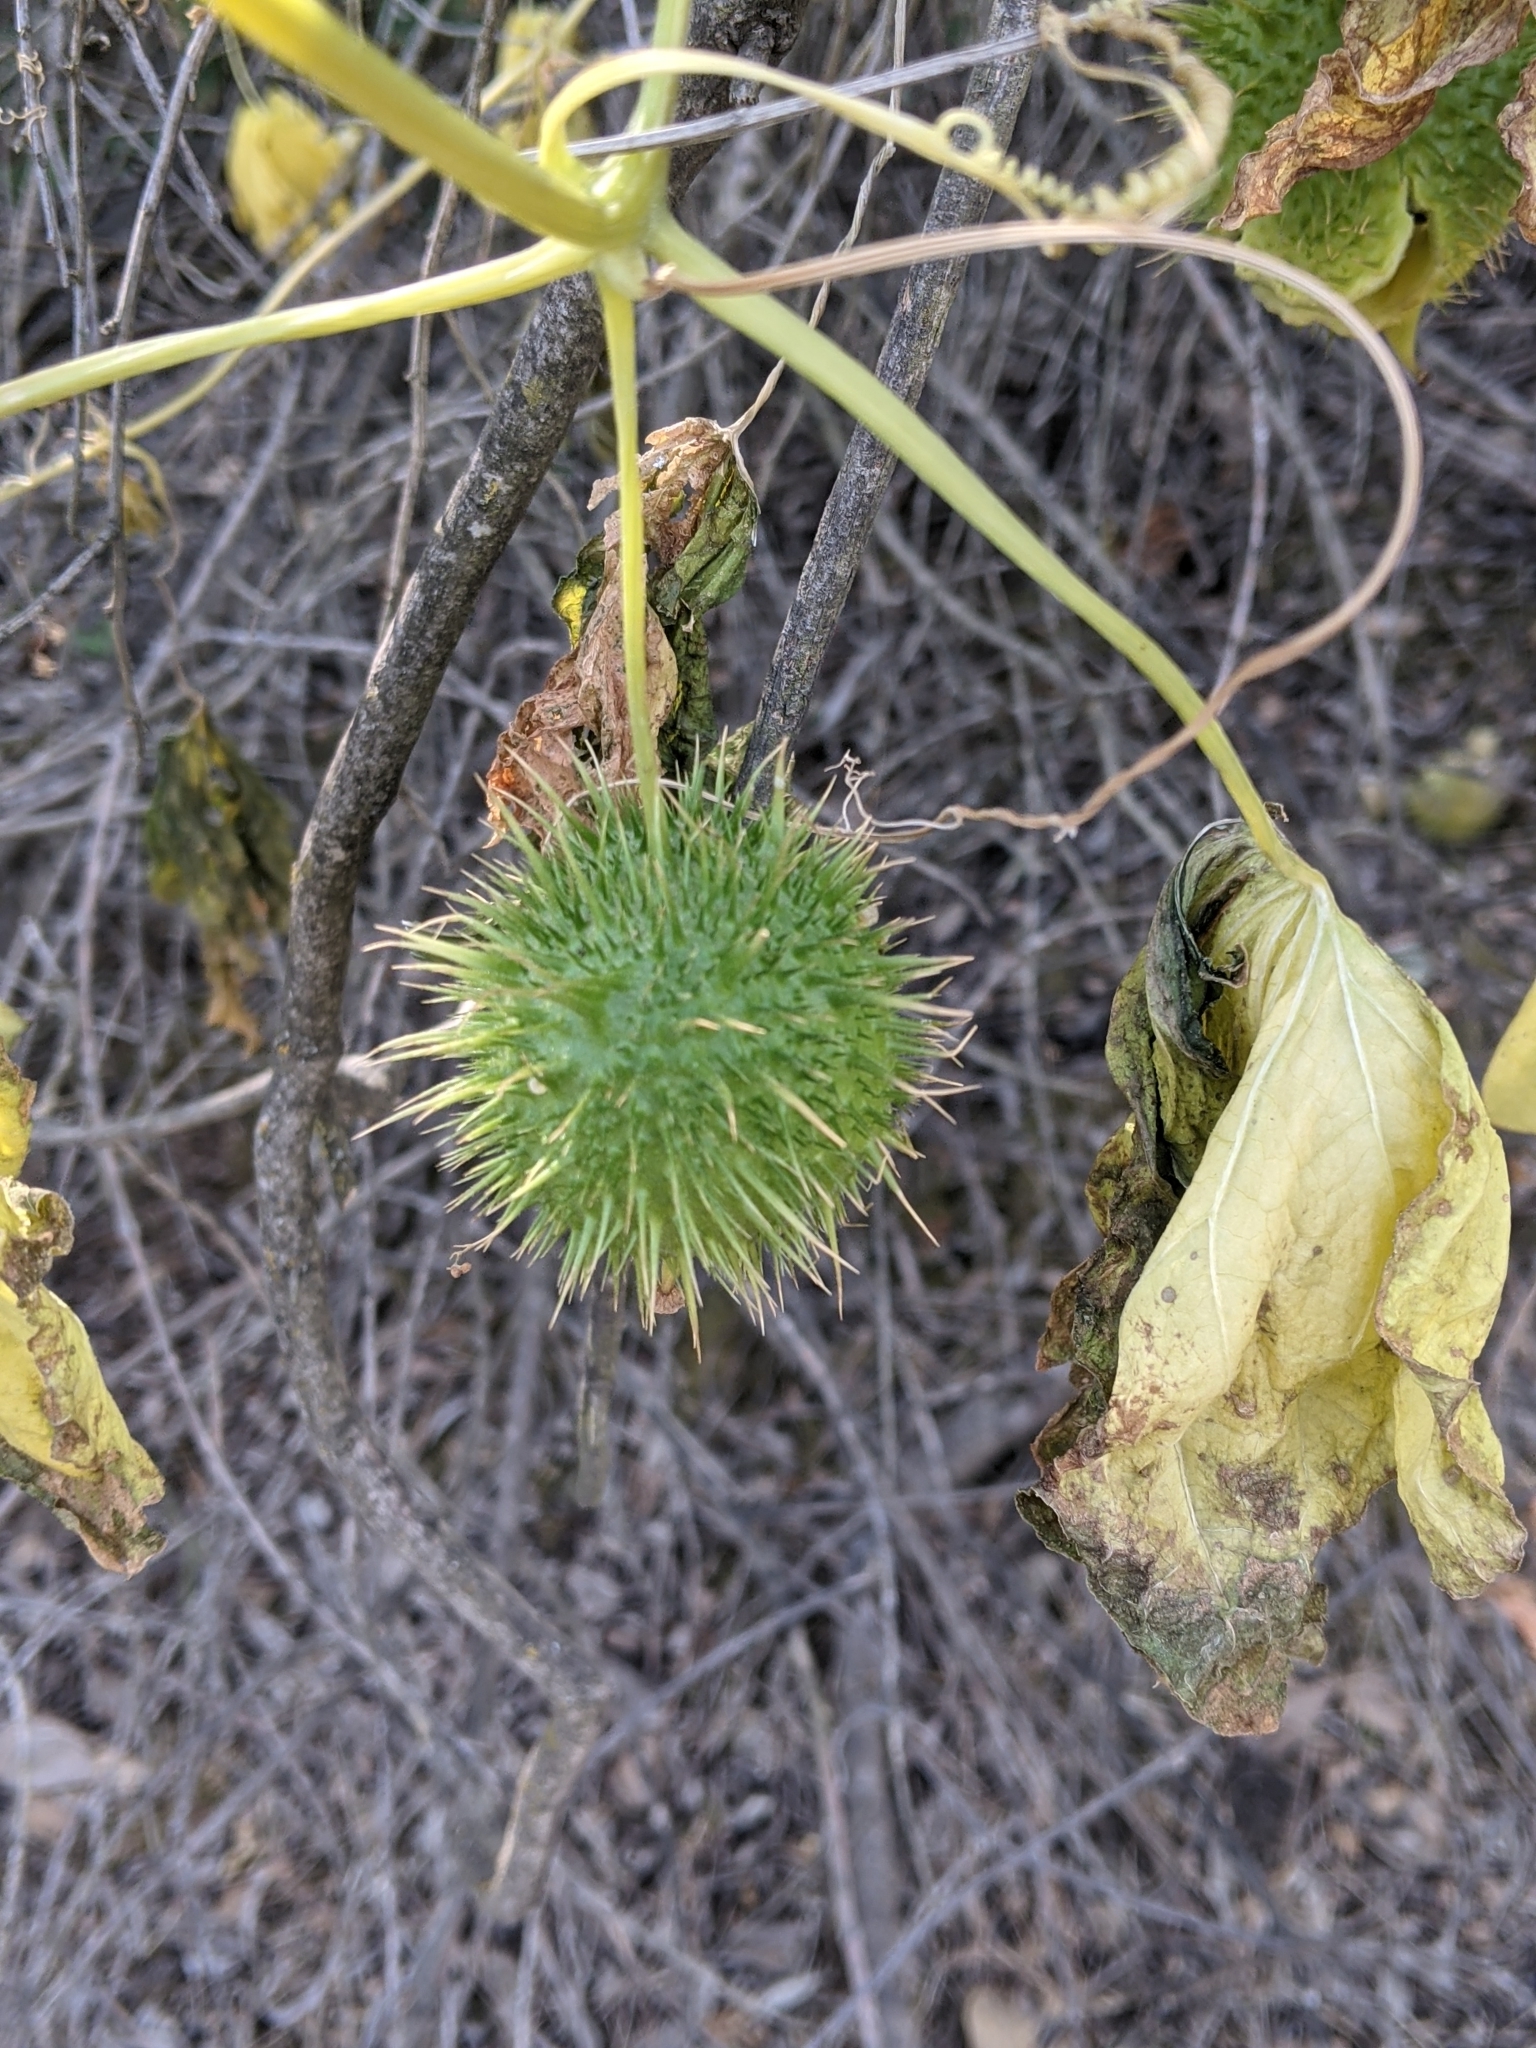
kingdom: Plantae
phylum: Tracheophyta
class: Magnoliopsida
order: Cucurbitales
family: Cucurbitaceae
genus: Marah
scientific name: Marah fabacea
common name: California manroot
